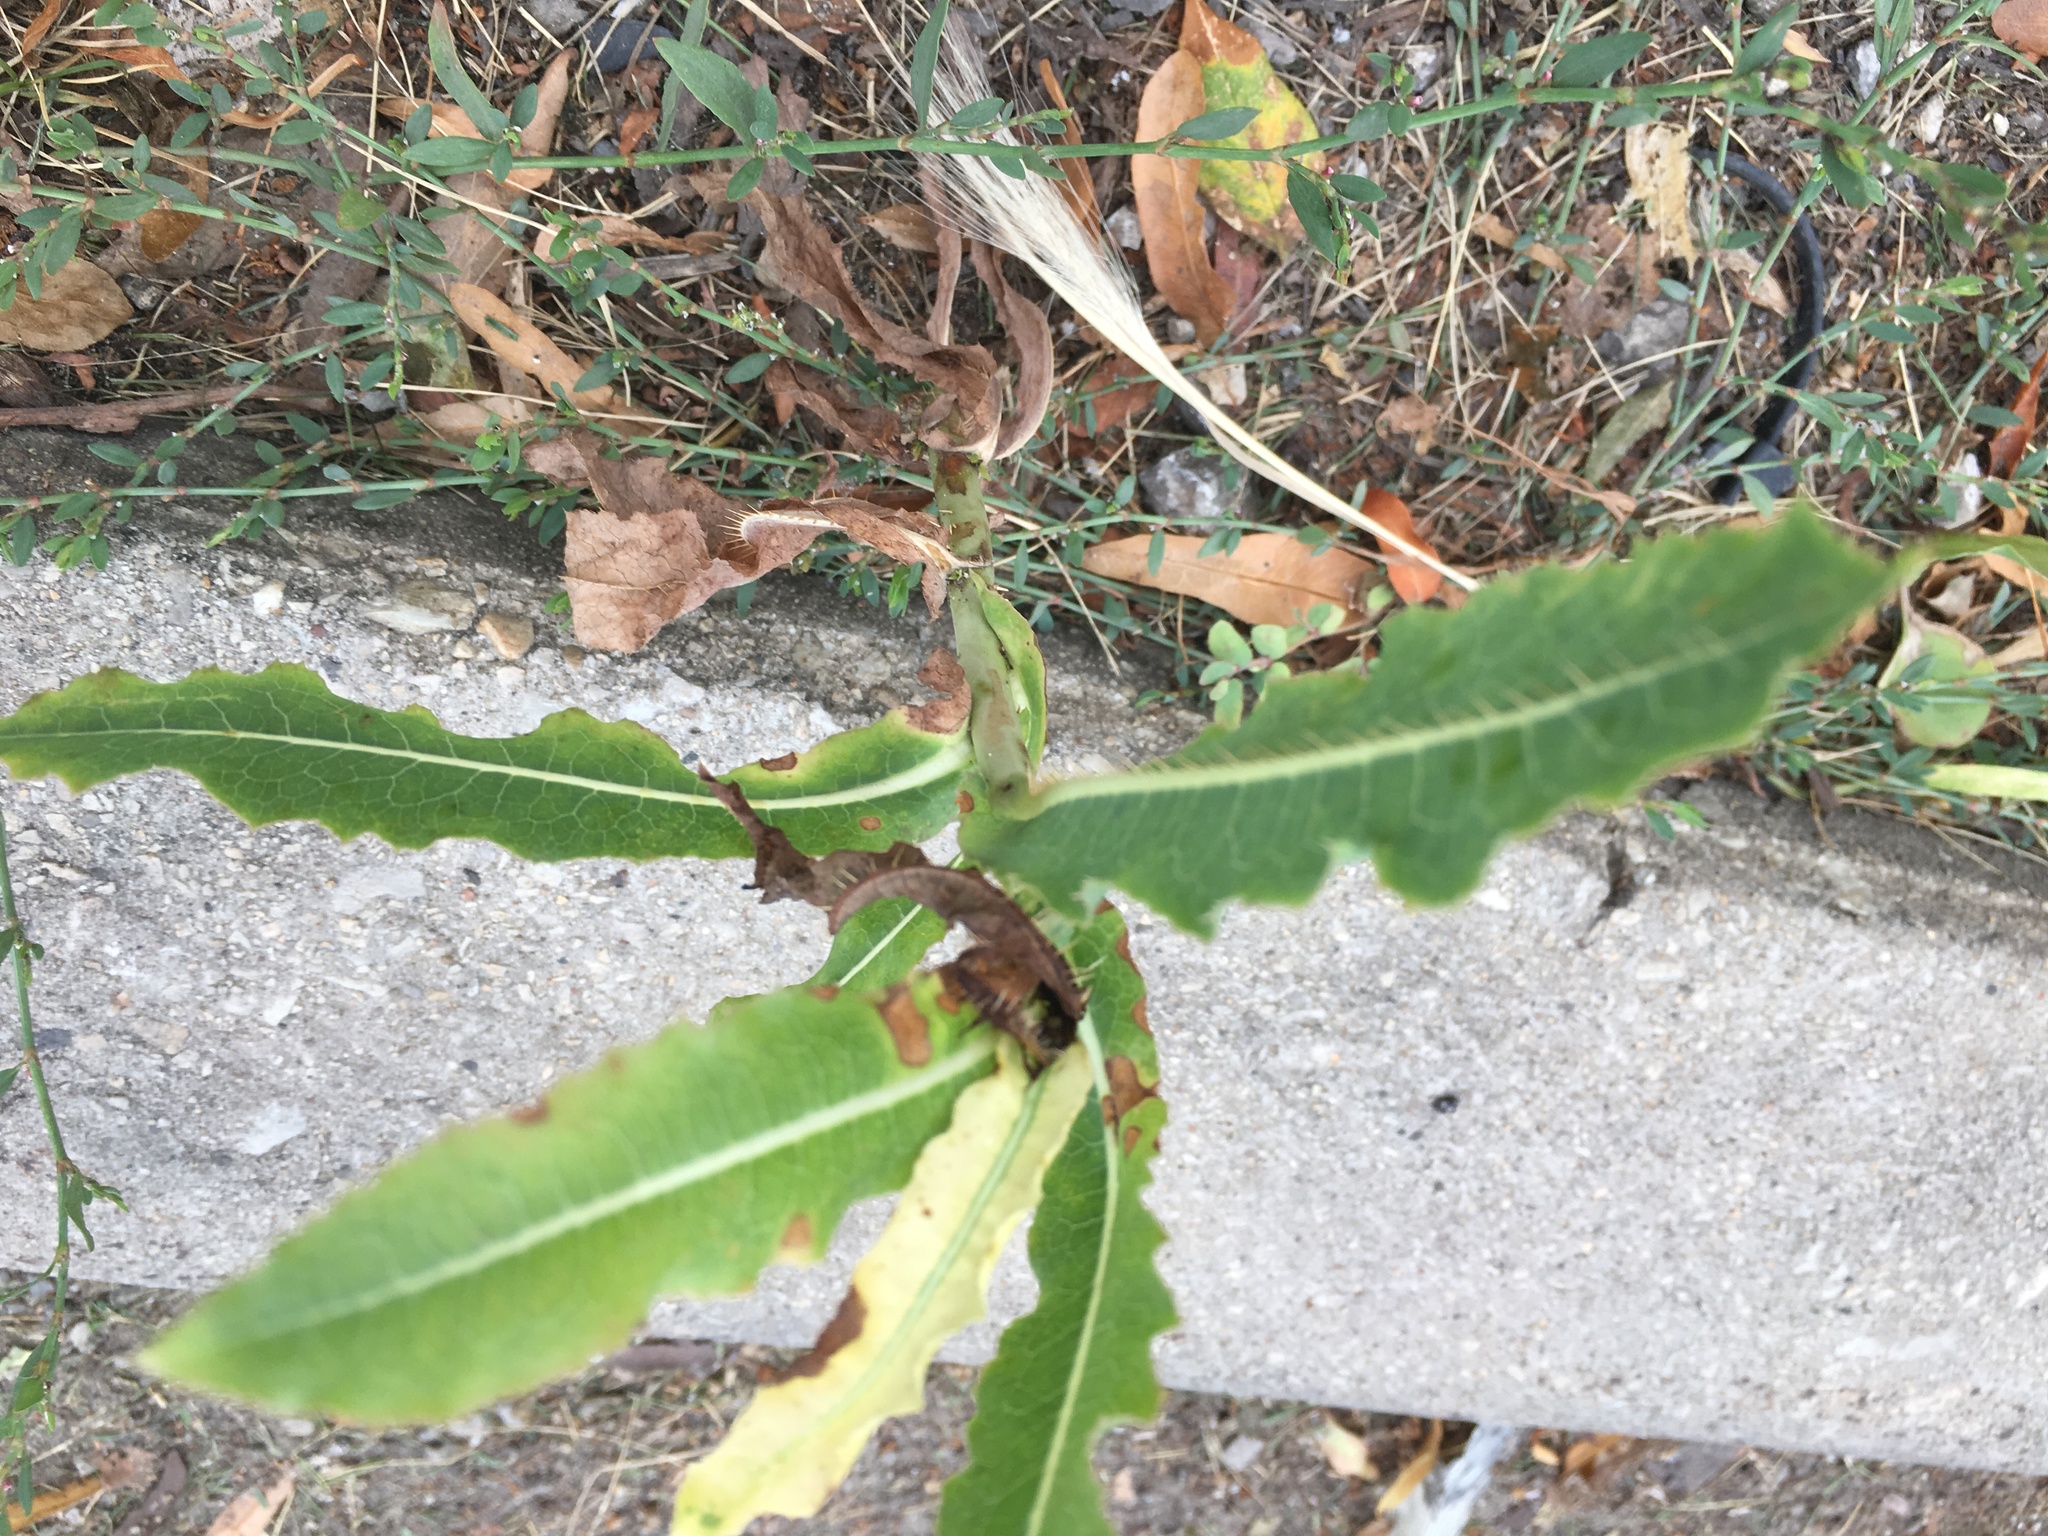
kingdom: Plantae
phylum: Tracheophyta
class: Magnoliopsida
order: Asterales
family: Asteraceae
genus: Lactuca
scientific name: Lactuca serriola
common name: Prickly lettuce
